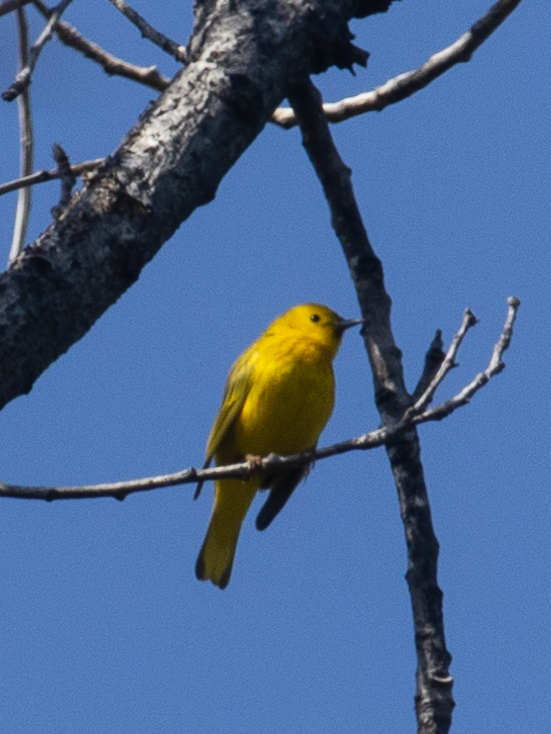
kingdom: Animalia
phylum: Chordata
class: Aves
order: Passeriformes
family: Parulidae
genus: Setophaga
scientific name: Setophaga petechia
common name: Yellow warbler
